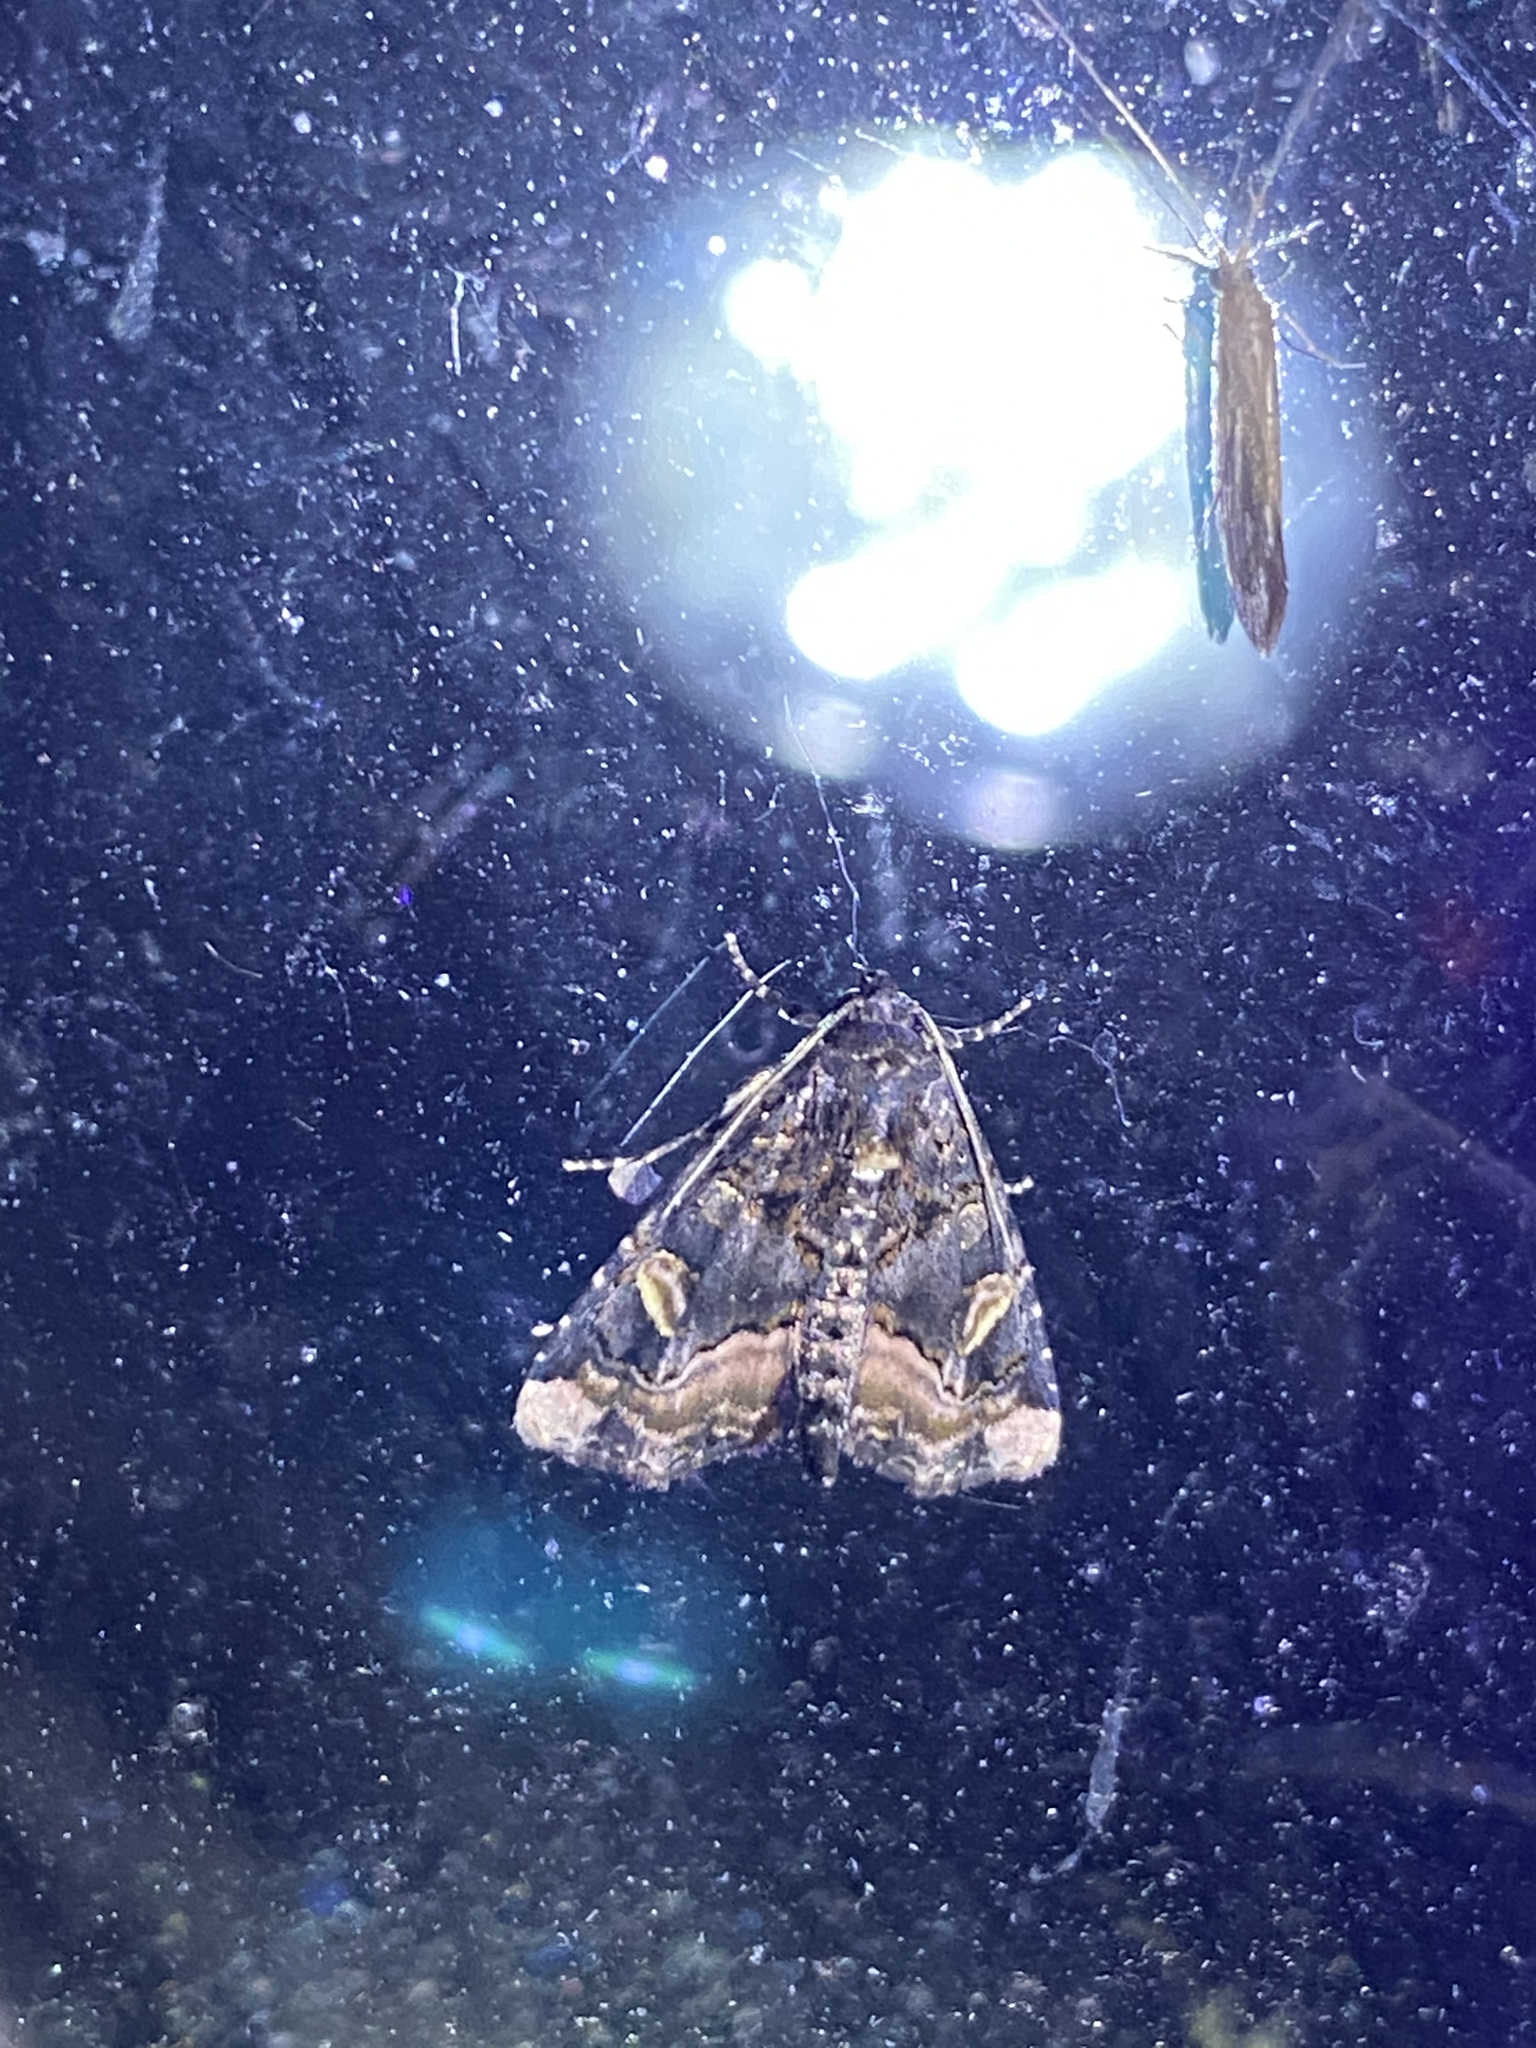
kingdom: Animalia
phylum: Arthropoda
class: Insecta
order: Lepidoptera
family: Noctuidae
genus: Homophoberia
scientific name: Homophoberia apicosa
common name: Black wedge-spot
